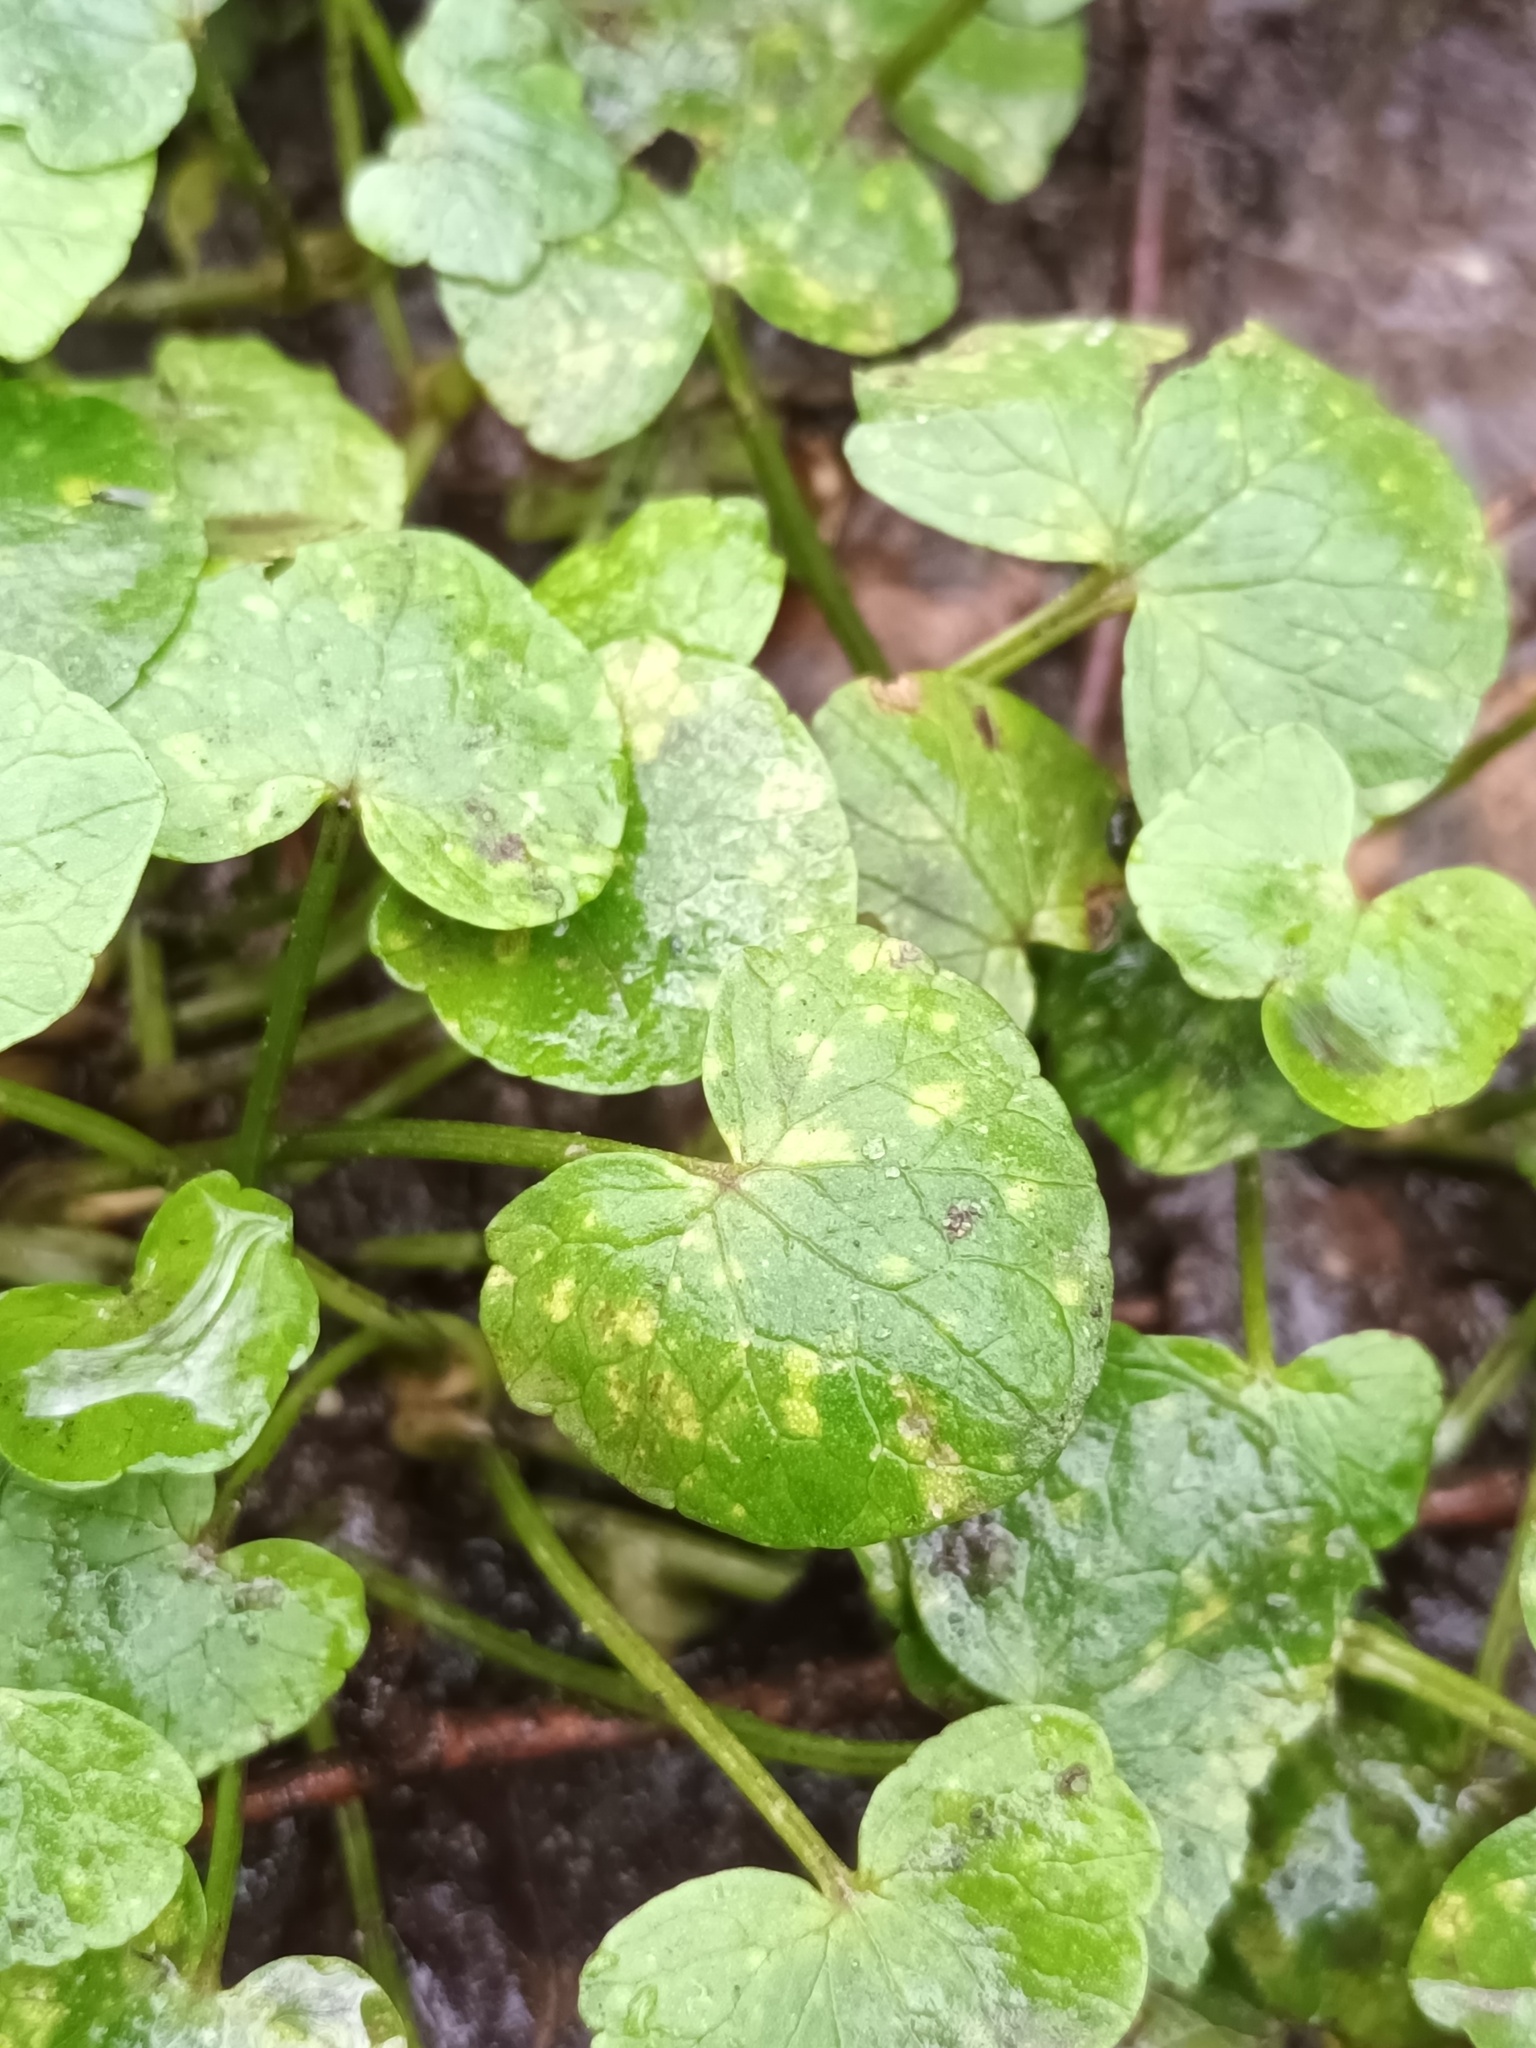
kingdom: Fungi
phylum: Basidiomycota
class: Exobasidiomycetes
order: Entylomatales
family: Entylomataceae
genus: Entyloma
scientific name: Entyloma ficariae
